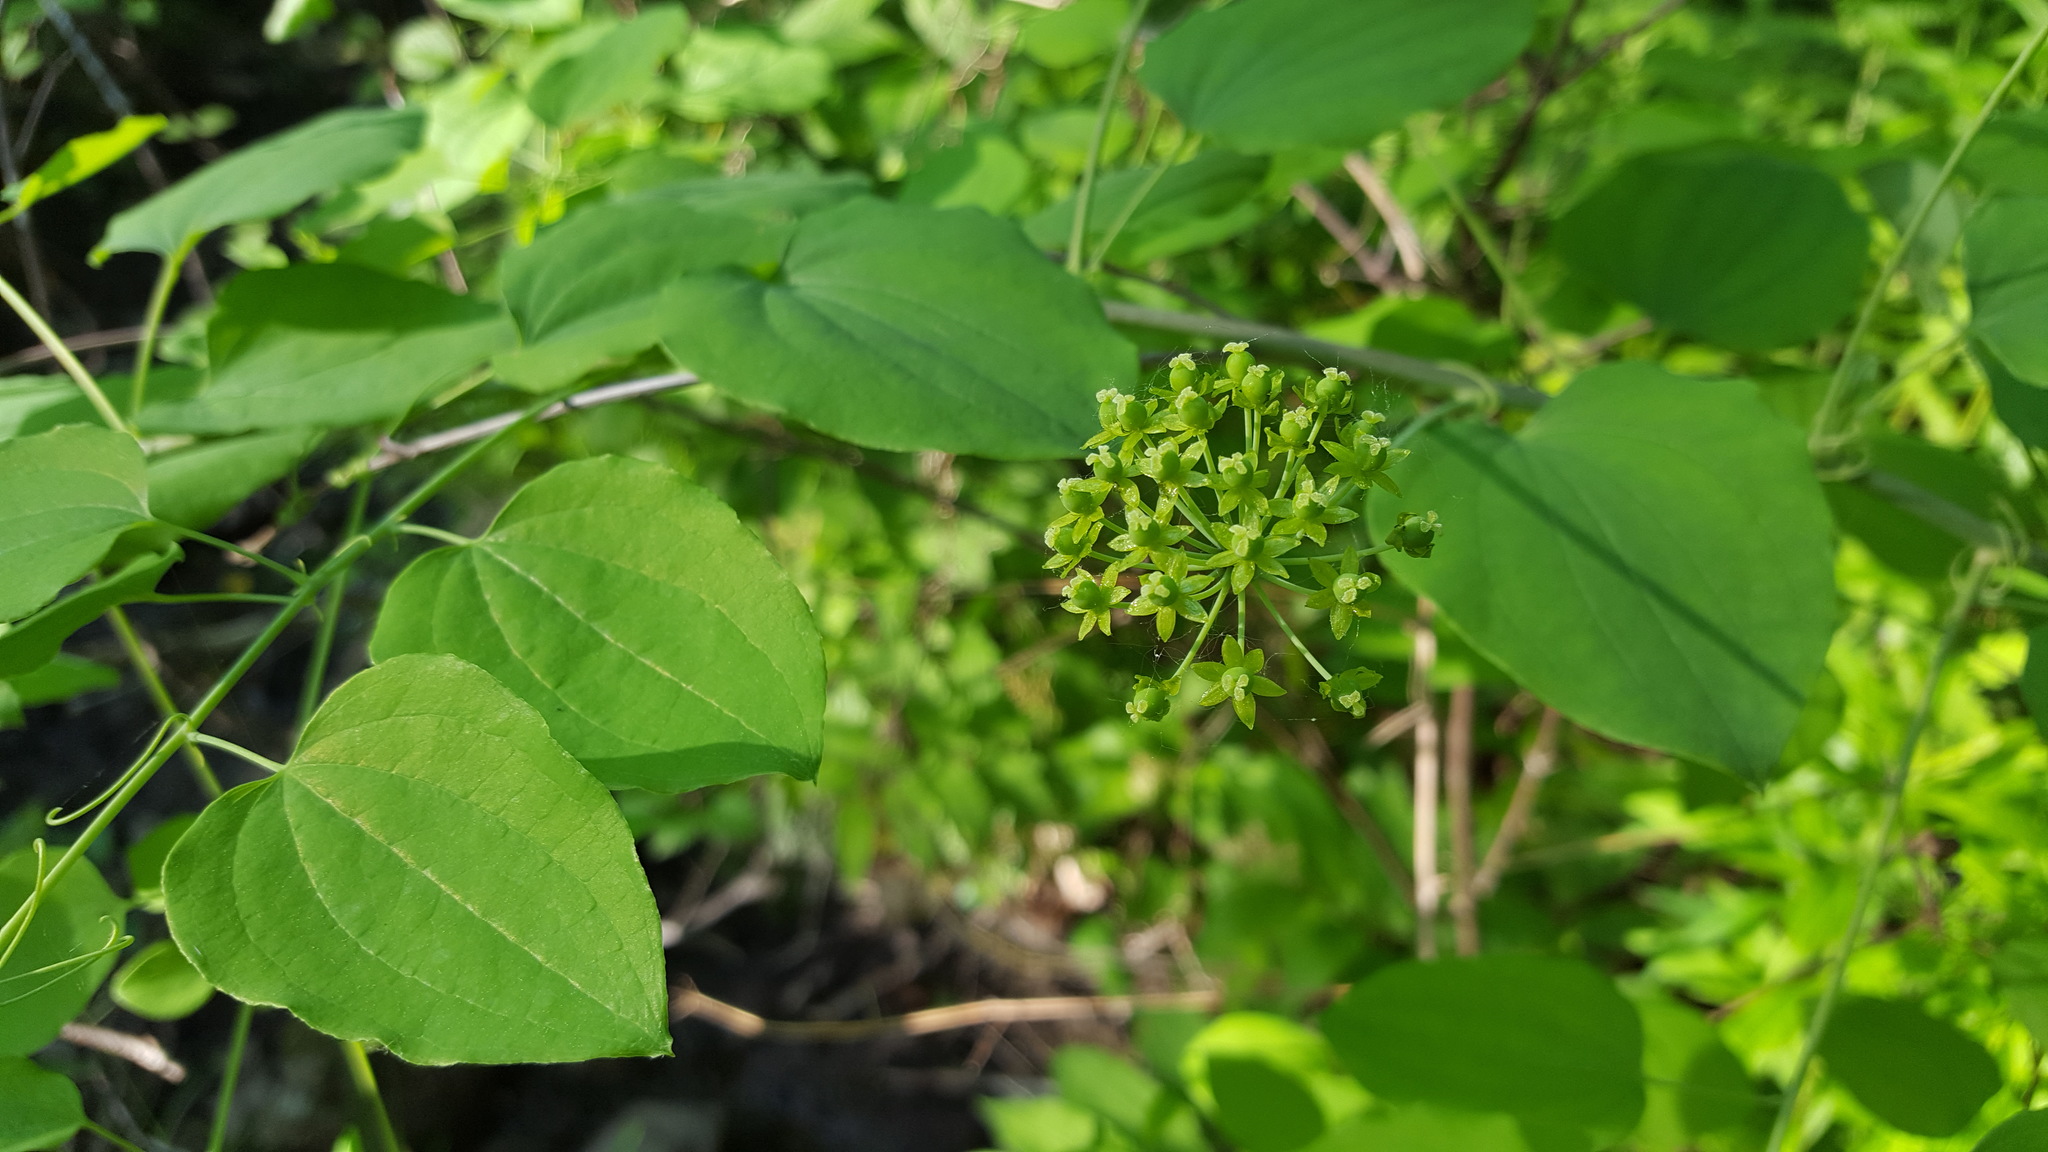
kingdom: Plantae
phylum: Tracheophyta
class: Liliopsida
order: Liliales
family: Smilacaceae
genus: Smilax
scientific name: Smilax herbacea
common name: Jacob's-ladder
